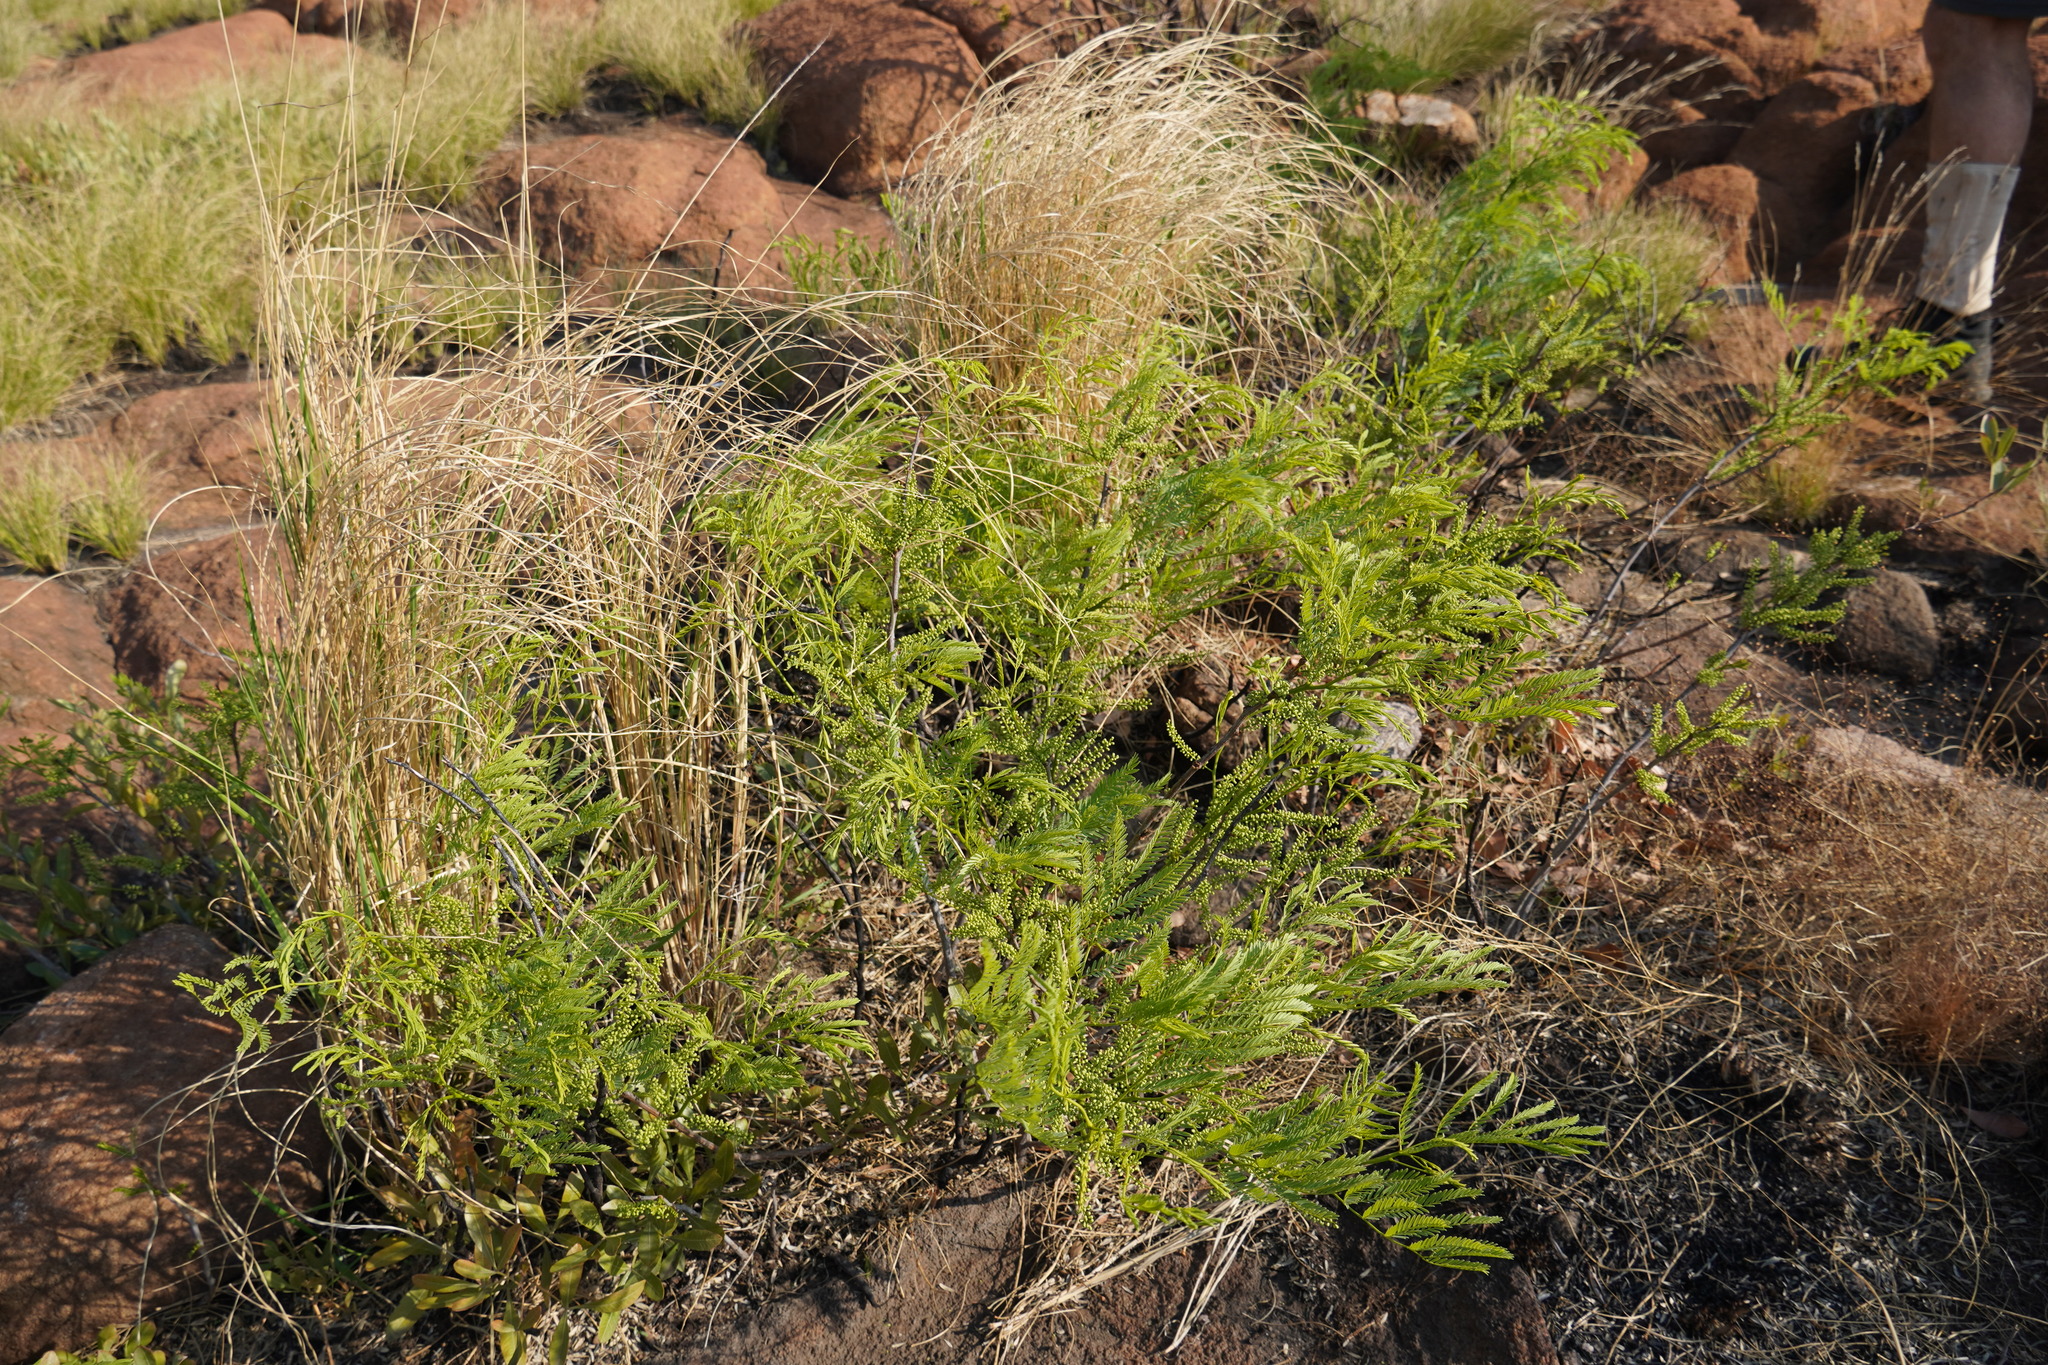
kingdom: Plantae
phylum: Tracheophyta
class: Magnoliopsida
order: Fabales
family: Fabaceae
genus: Elephantorrhiza
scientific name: Elephantorrhiza burkei
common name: Broad-pod elephant-root
